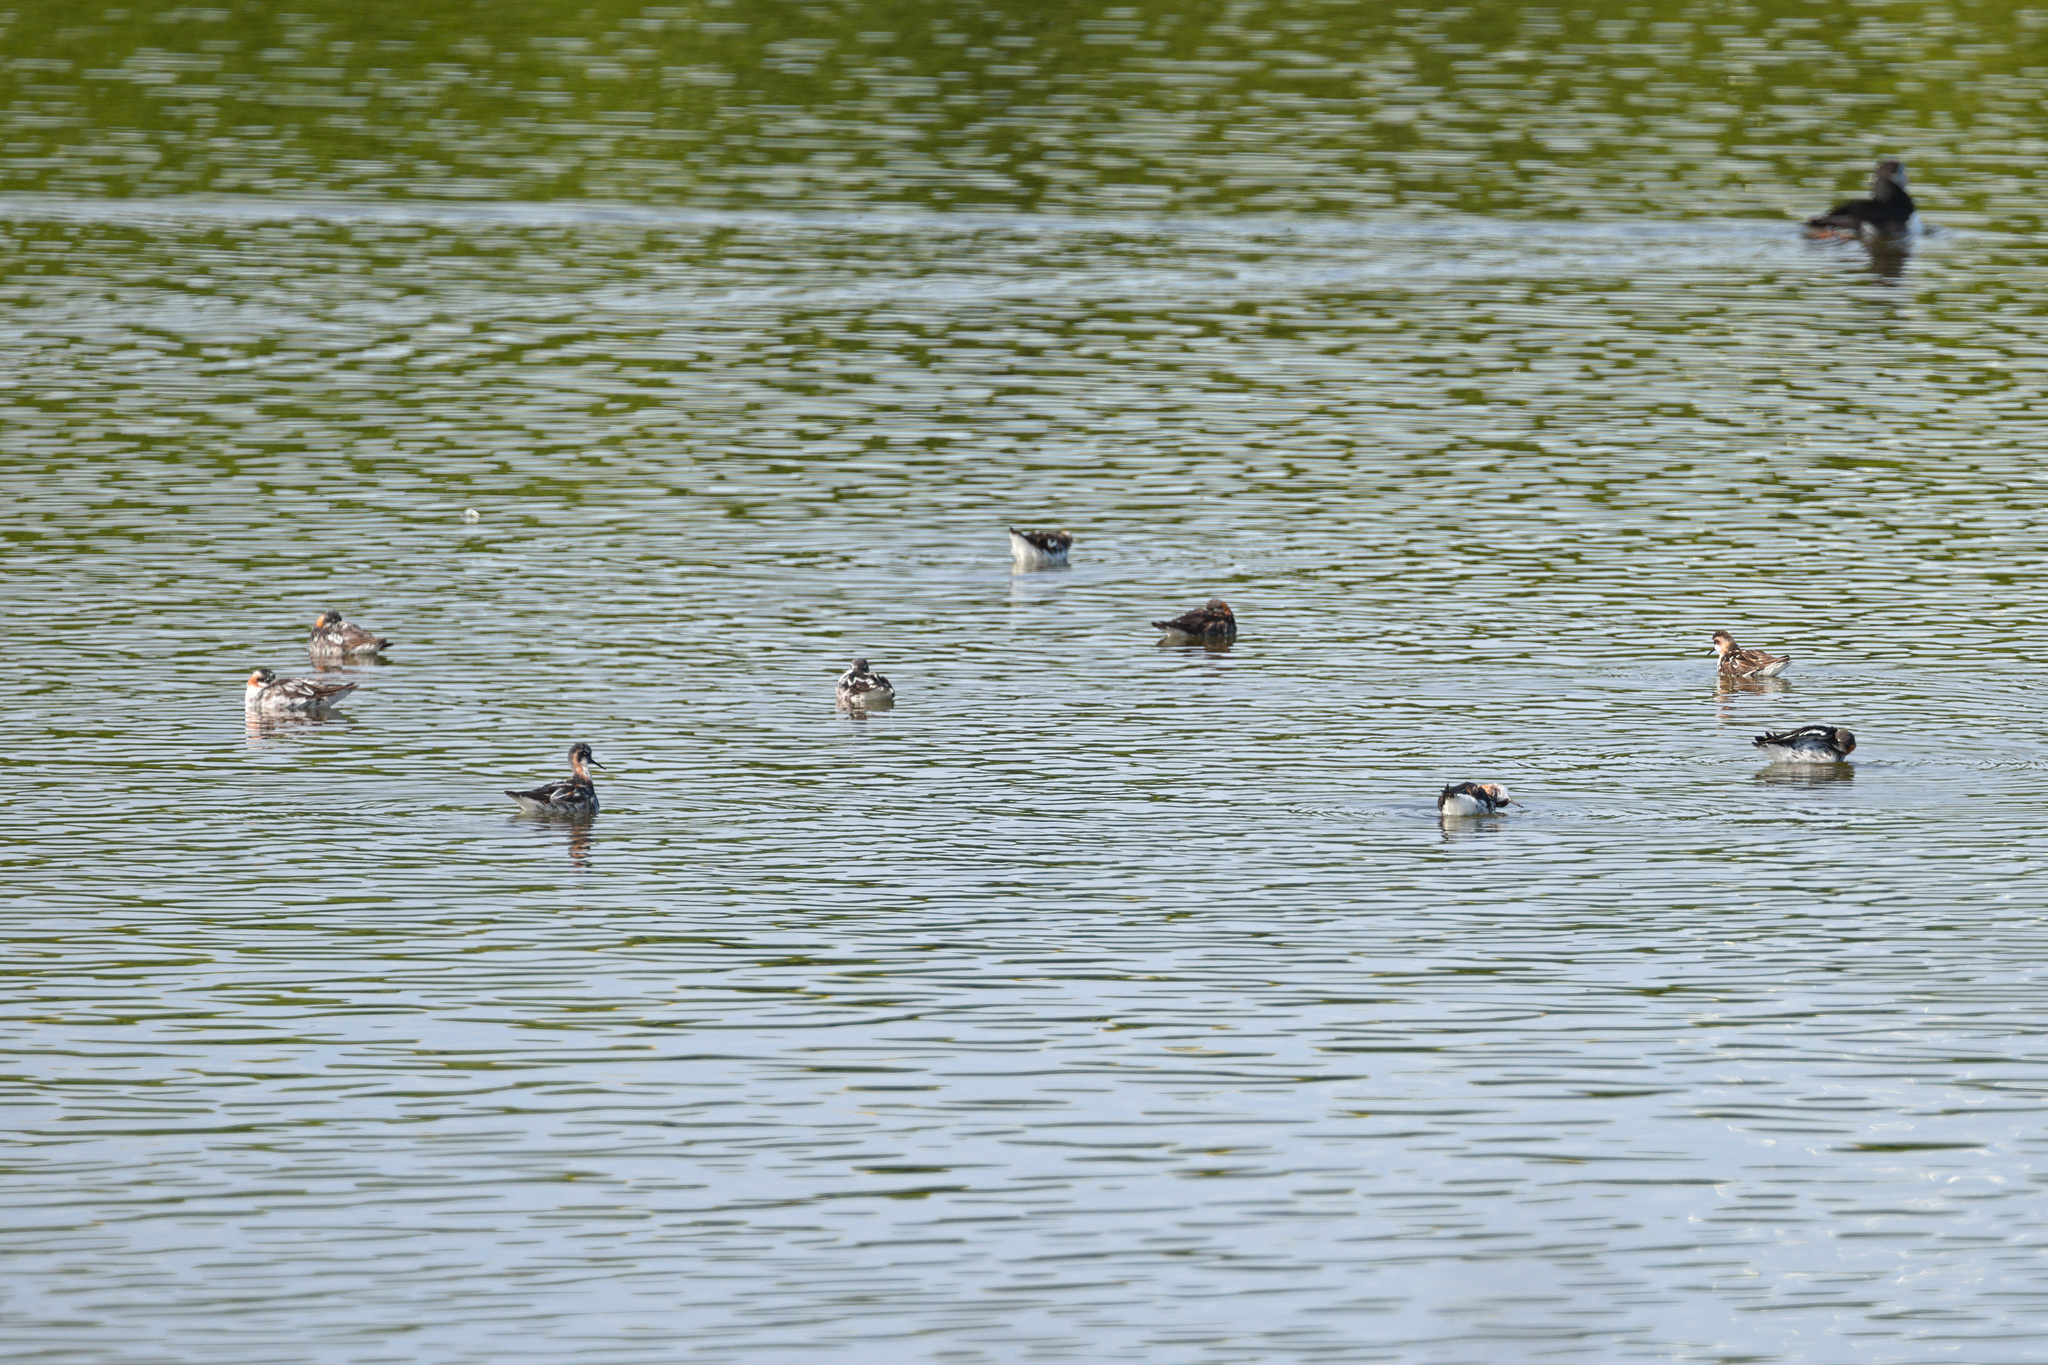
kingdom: Animalia
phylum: Chordata
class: Aves
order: Charadriiformes
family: Scolopacidae
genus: Phalaropus
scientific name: Phalaropus lobatus
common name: Red-necked phalarope
